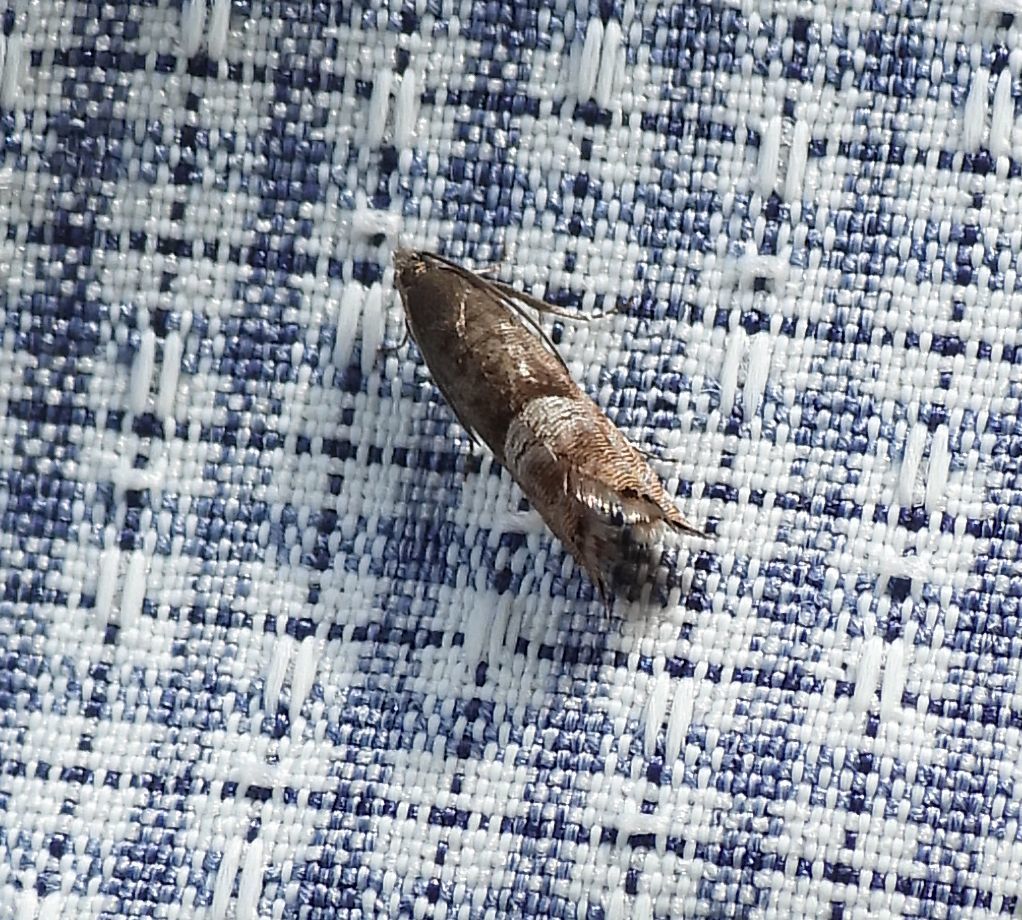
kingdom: Animalia
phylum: Arthropoda
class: Insecta
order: Lepidoptera
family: Tortricidae
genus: Sereda
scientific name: Sereda tautana
